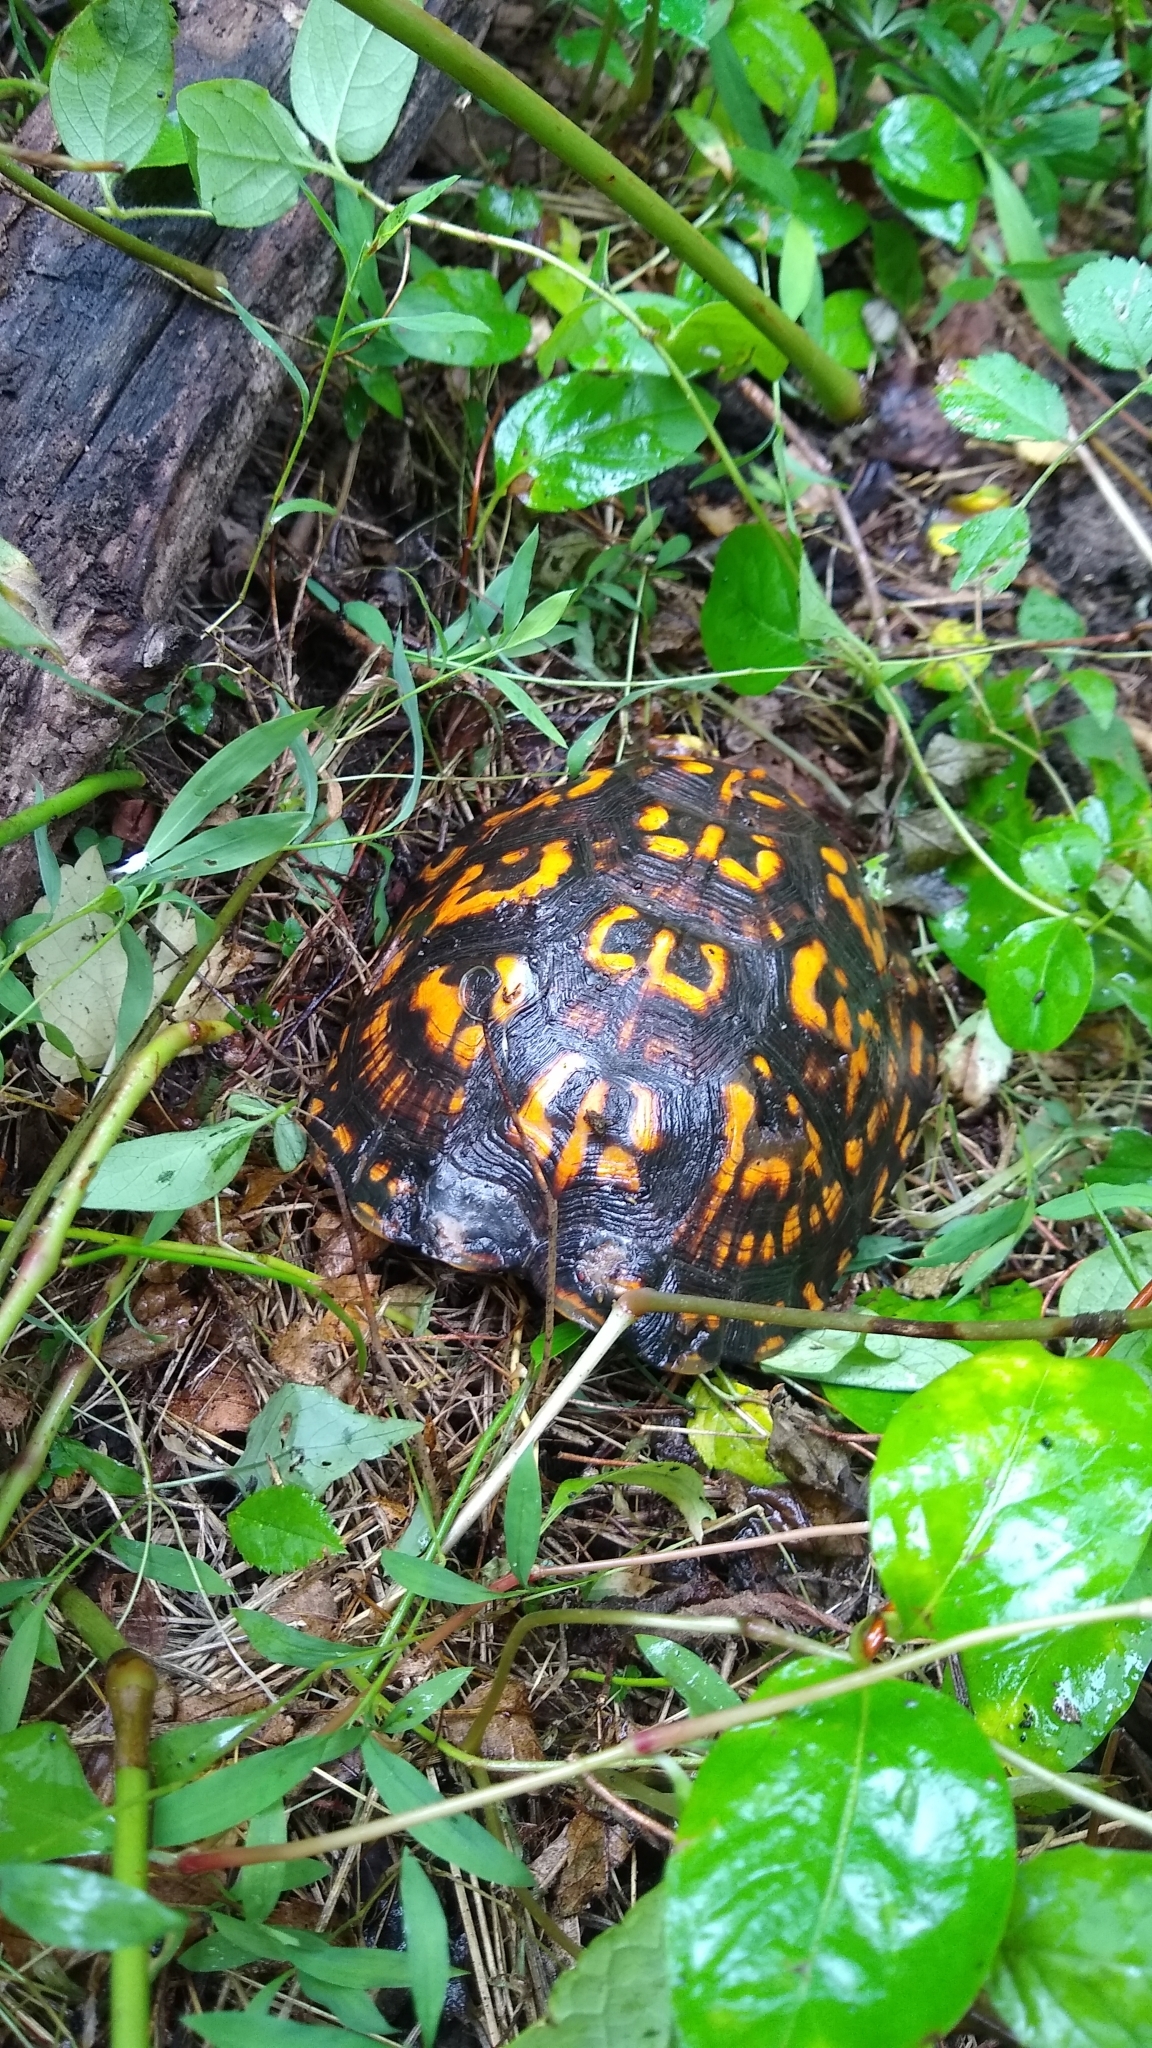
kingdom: Animalia
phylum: Chordata
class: Testudines
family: Emydidae
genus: Terrapene
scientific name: Terrapene carolina
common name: Common box turtle
